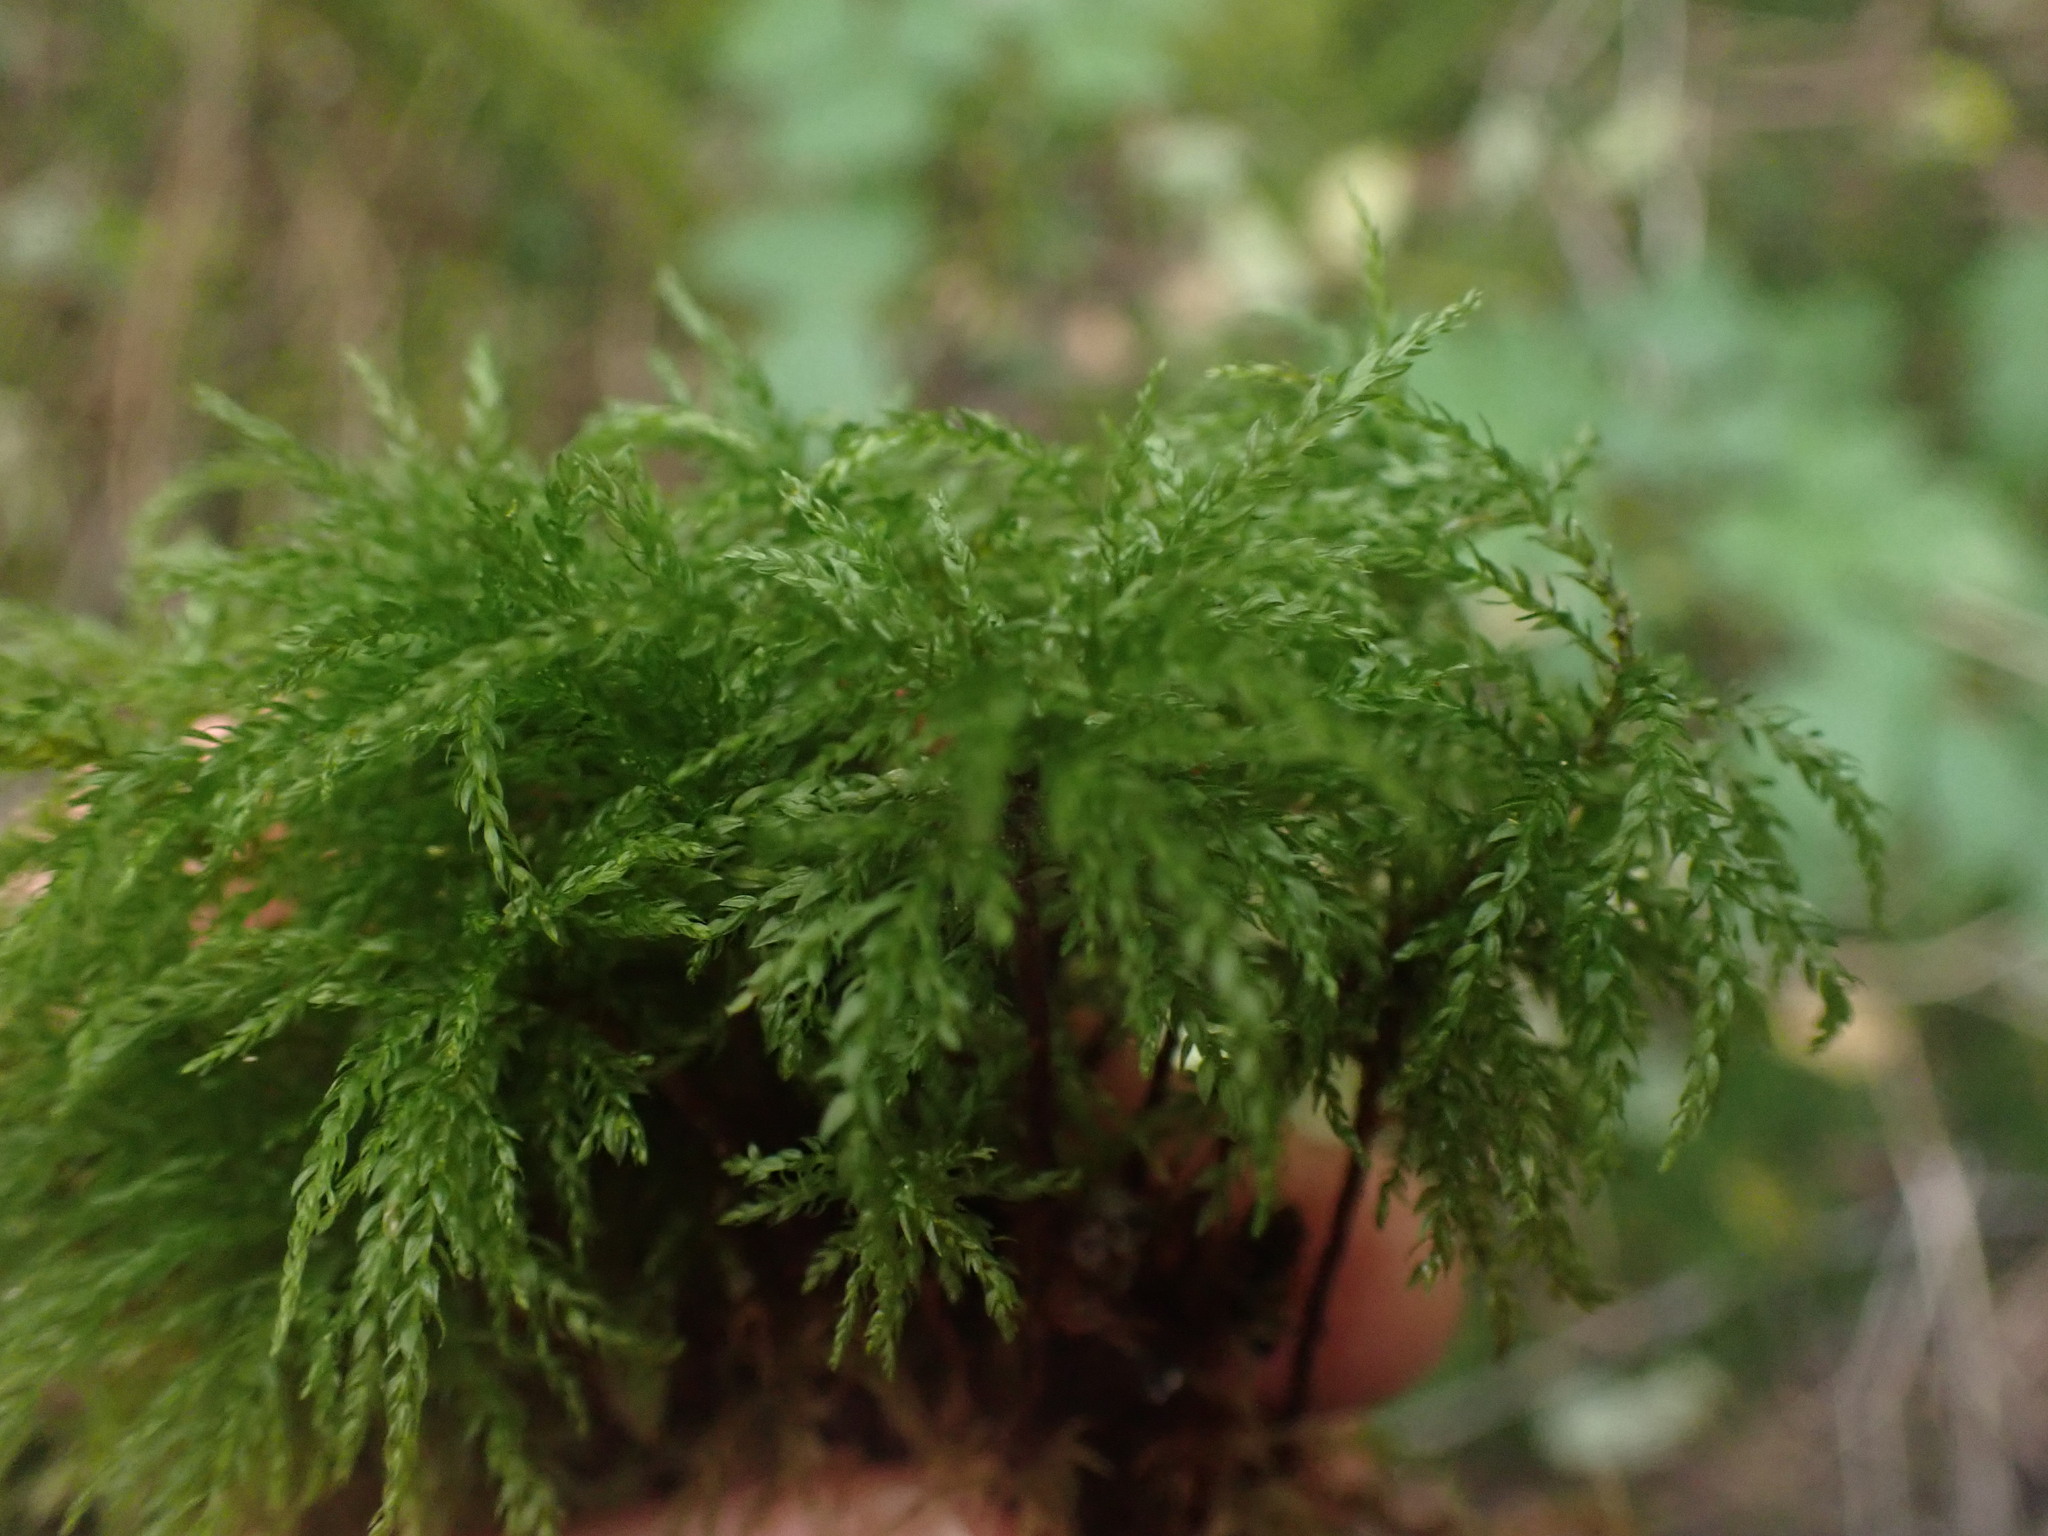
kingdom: Plantae
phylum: Bryophyta
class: Bryopsida
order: Bryales
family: Mniaceae
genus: Leucolepis
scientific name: Leucolepis acanthoneura
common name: Leucolepis umbrella moss
